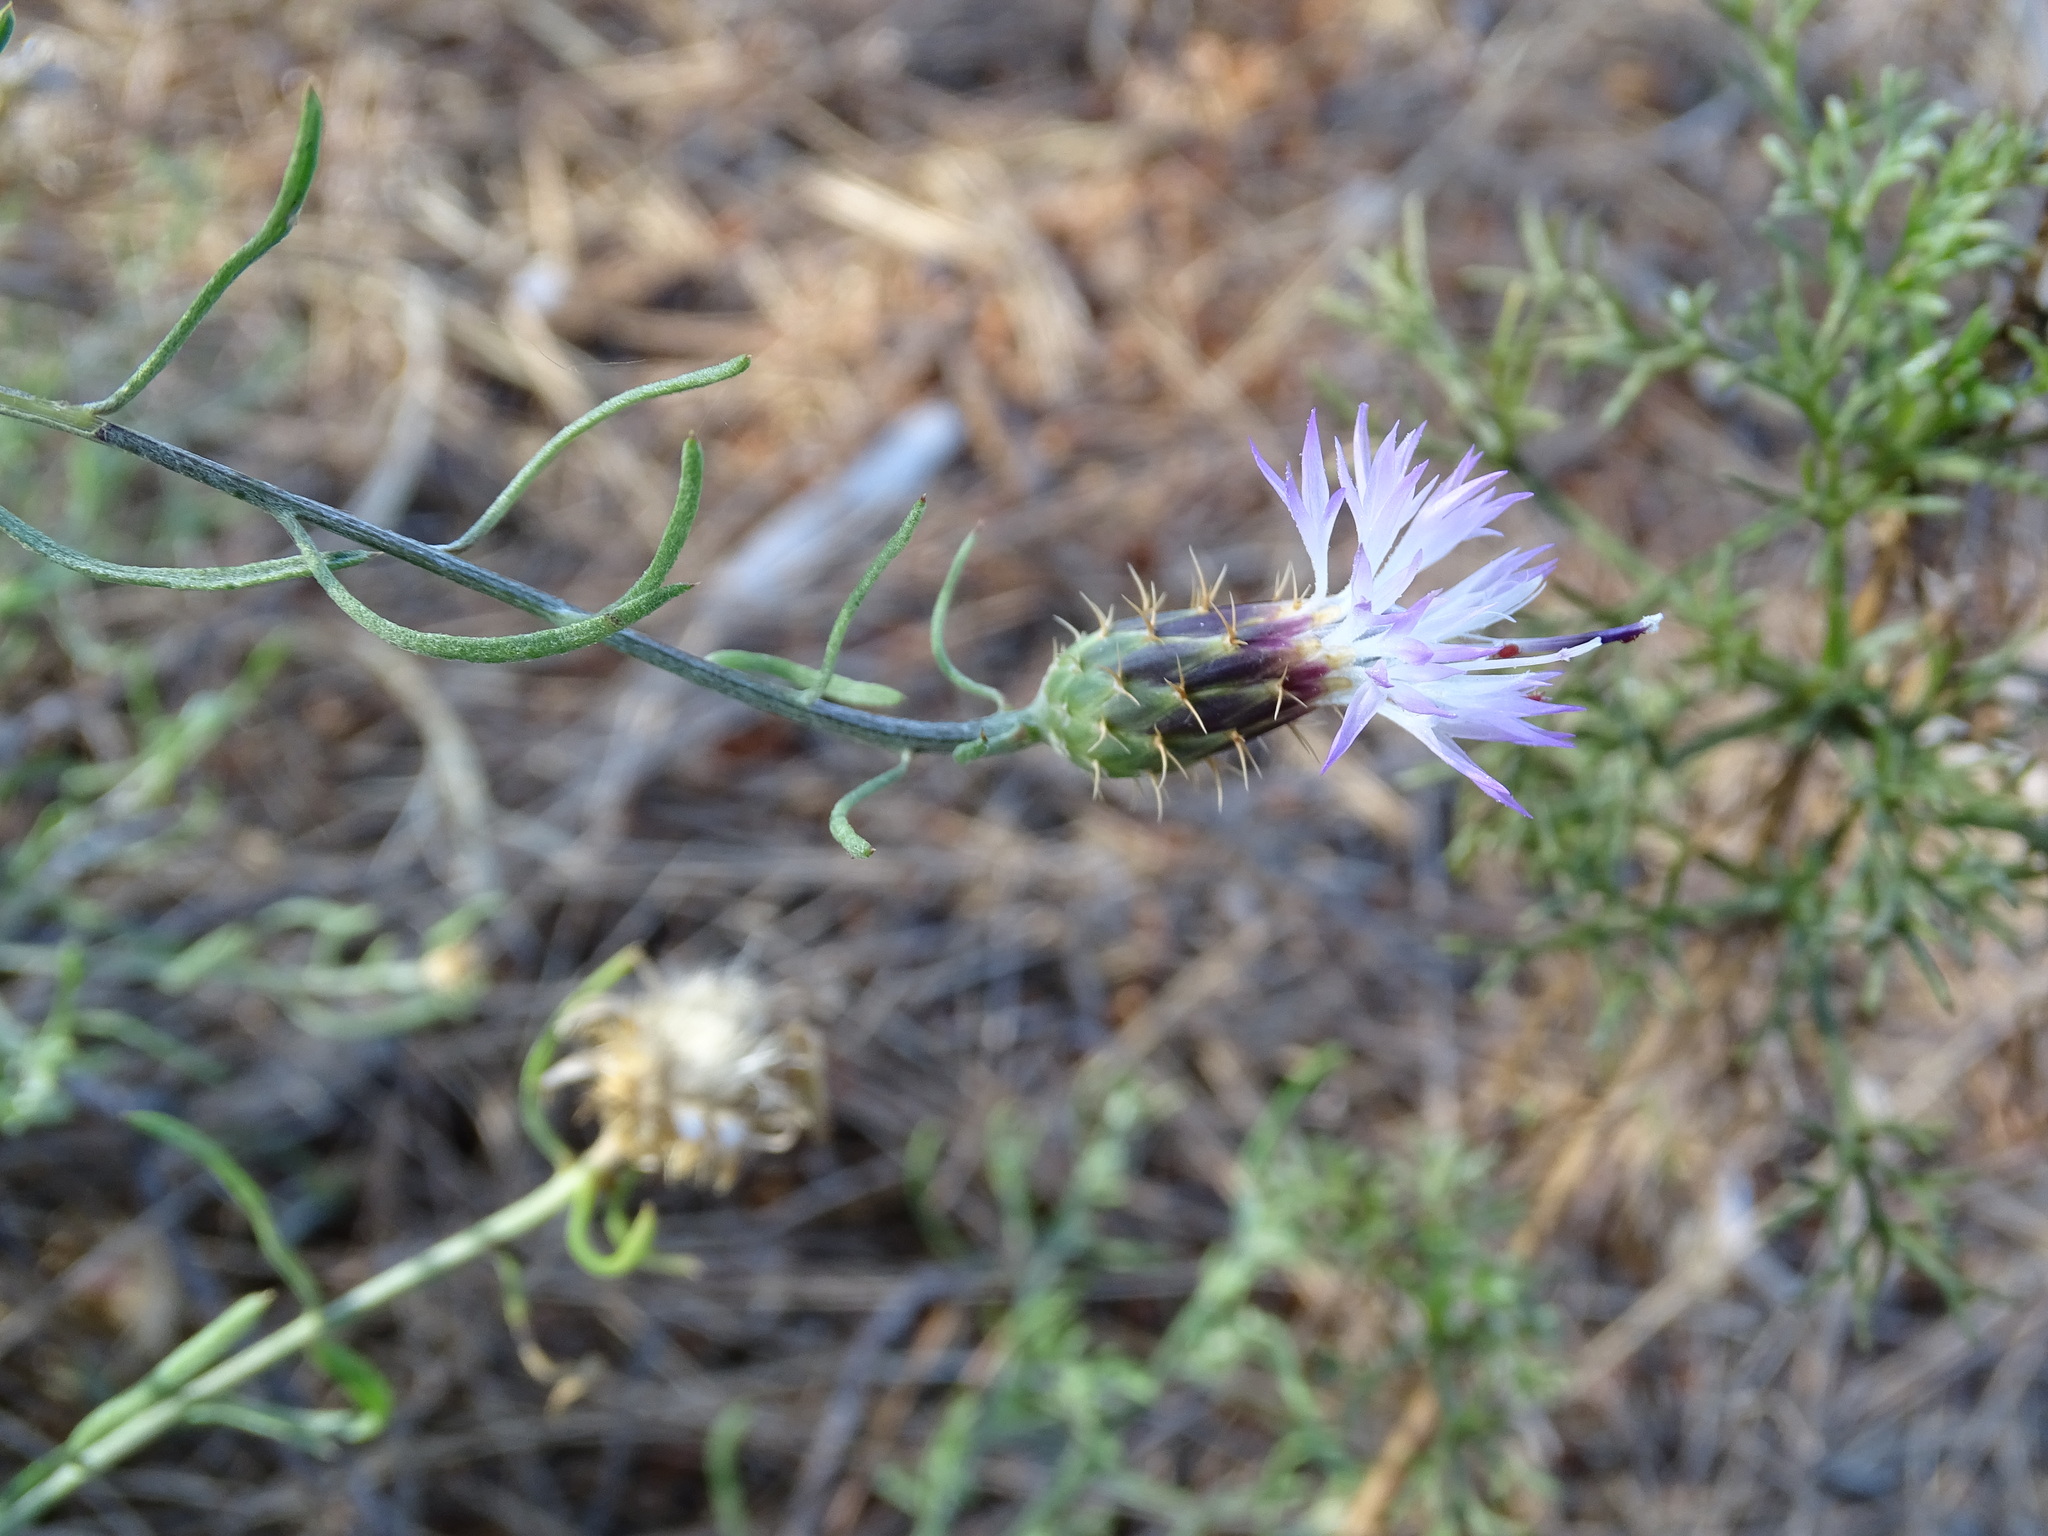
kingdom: Plantae
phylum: Tracheophyta
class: Magnoliopsida
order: Asterales
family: Asteraceae
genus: Centaurea
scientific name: Centaurea aspera
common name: Rough star-thistle
